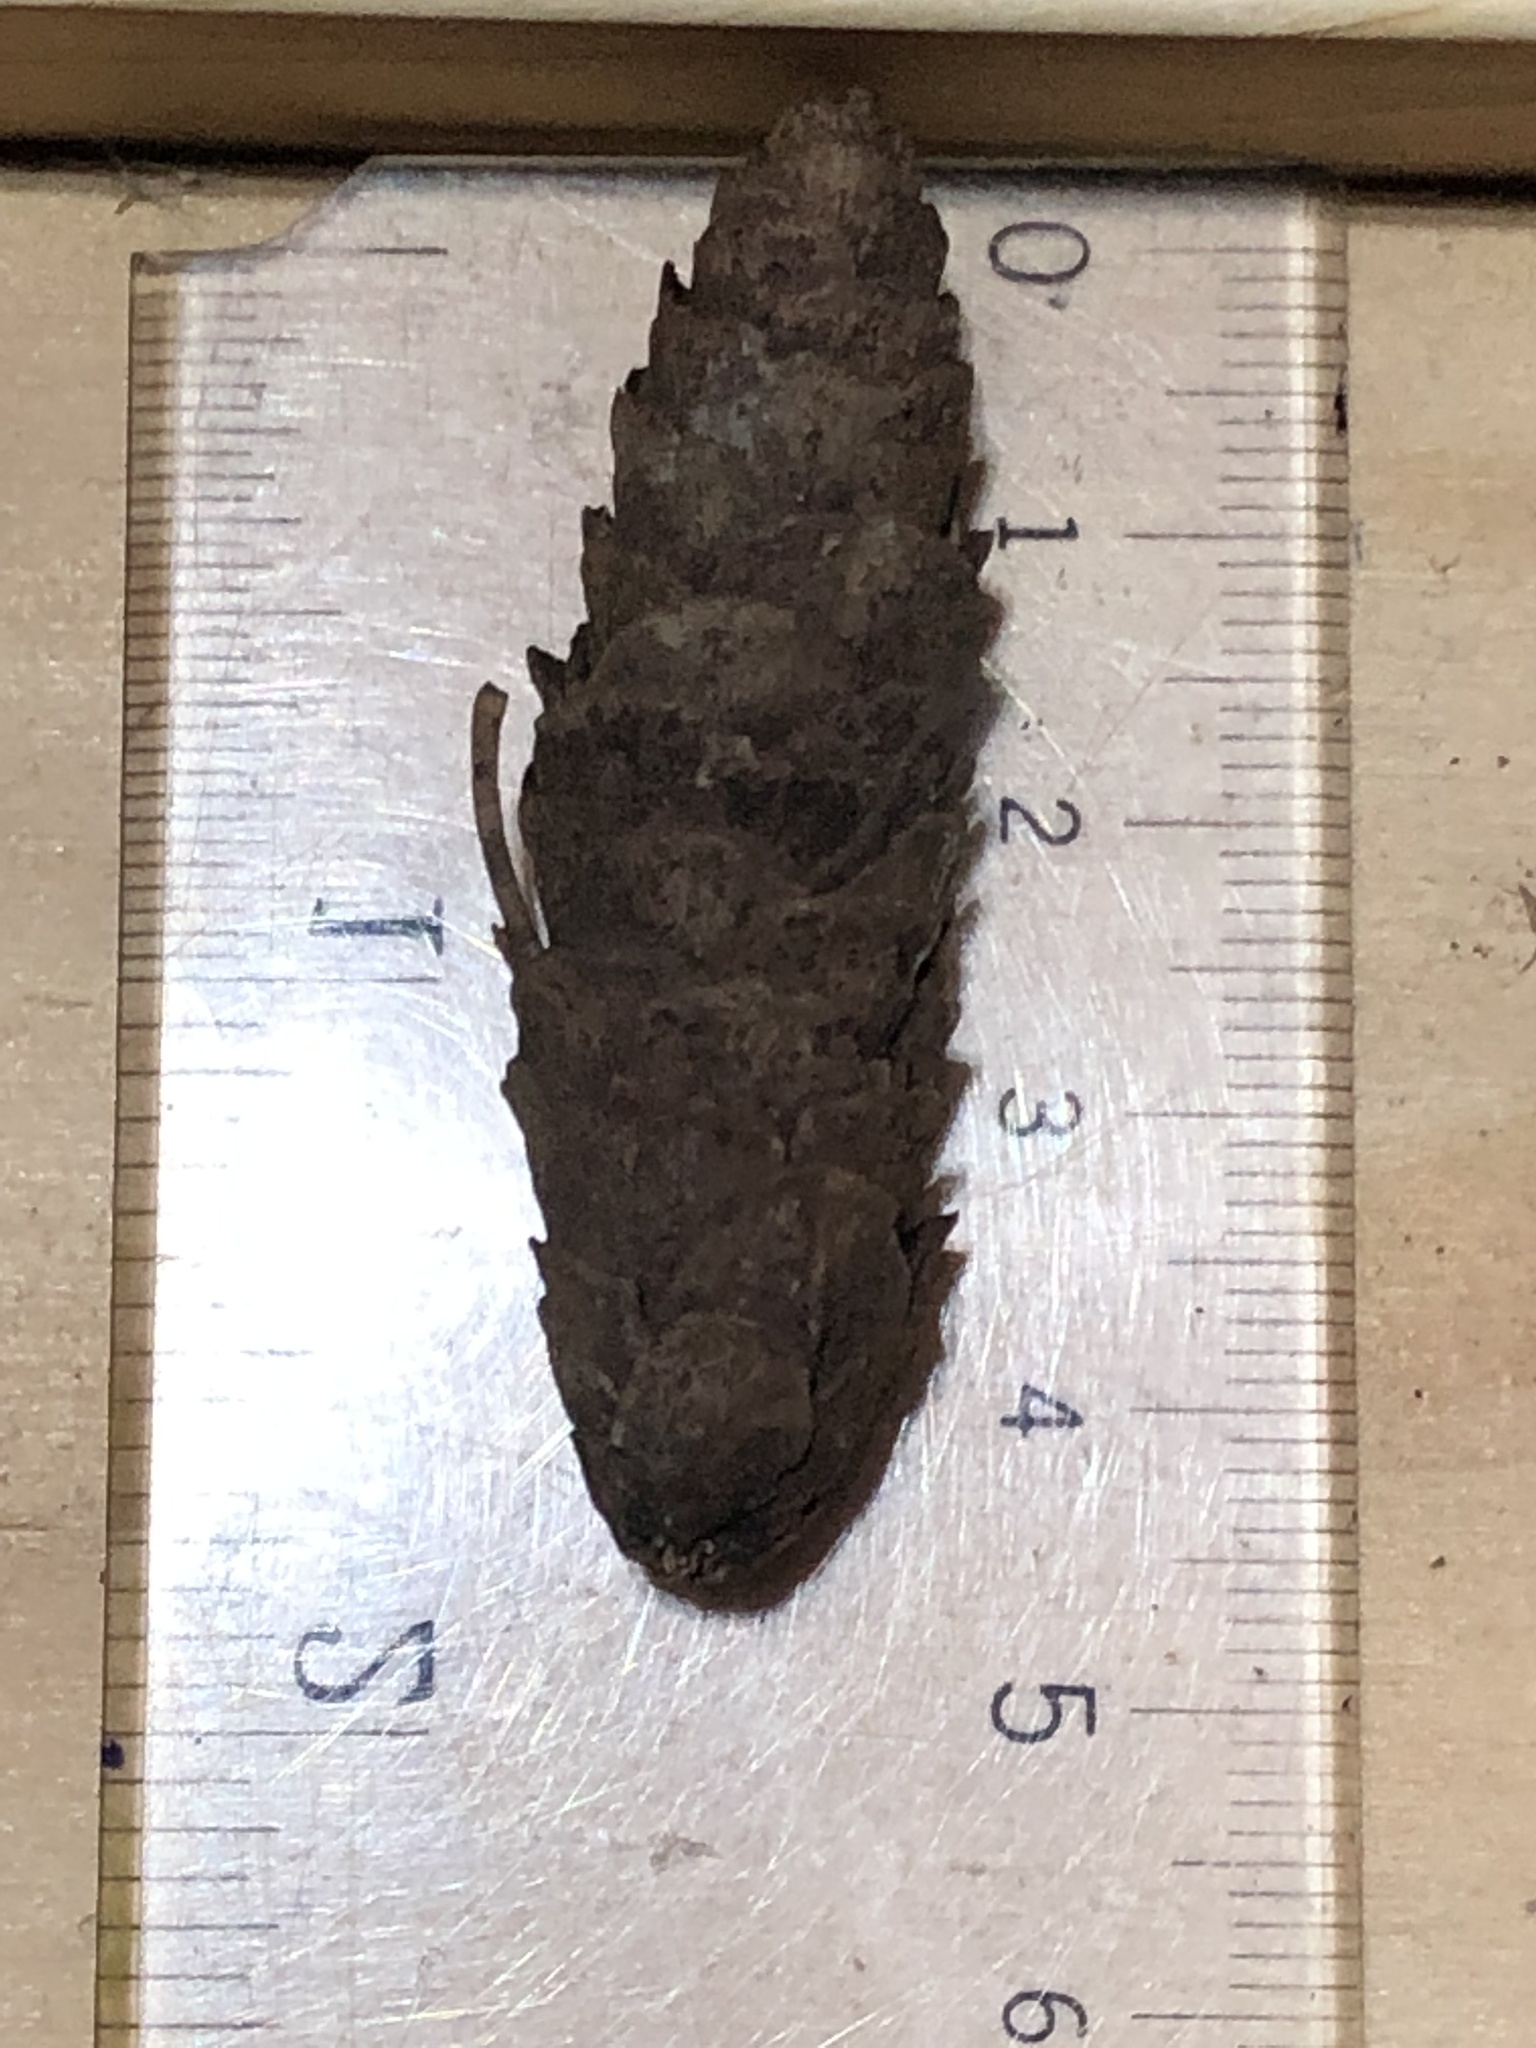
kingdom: Plantae
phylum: Tracheophyta
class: Pinopsida
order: Pinales
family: Pinaceae
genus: Picea
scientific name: Picea glauca
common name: White spruce
